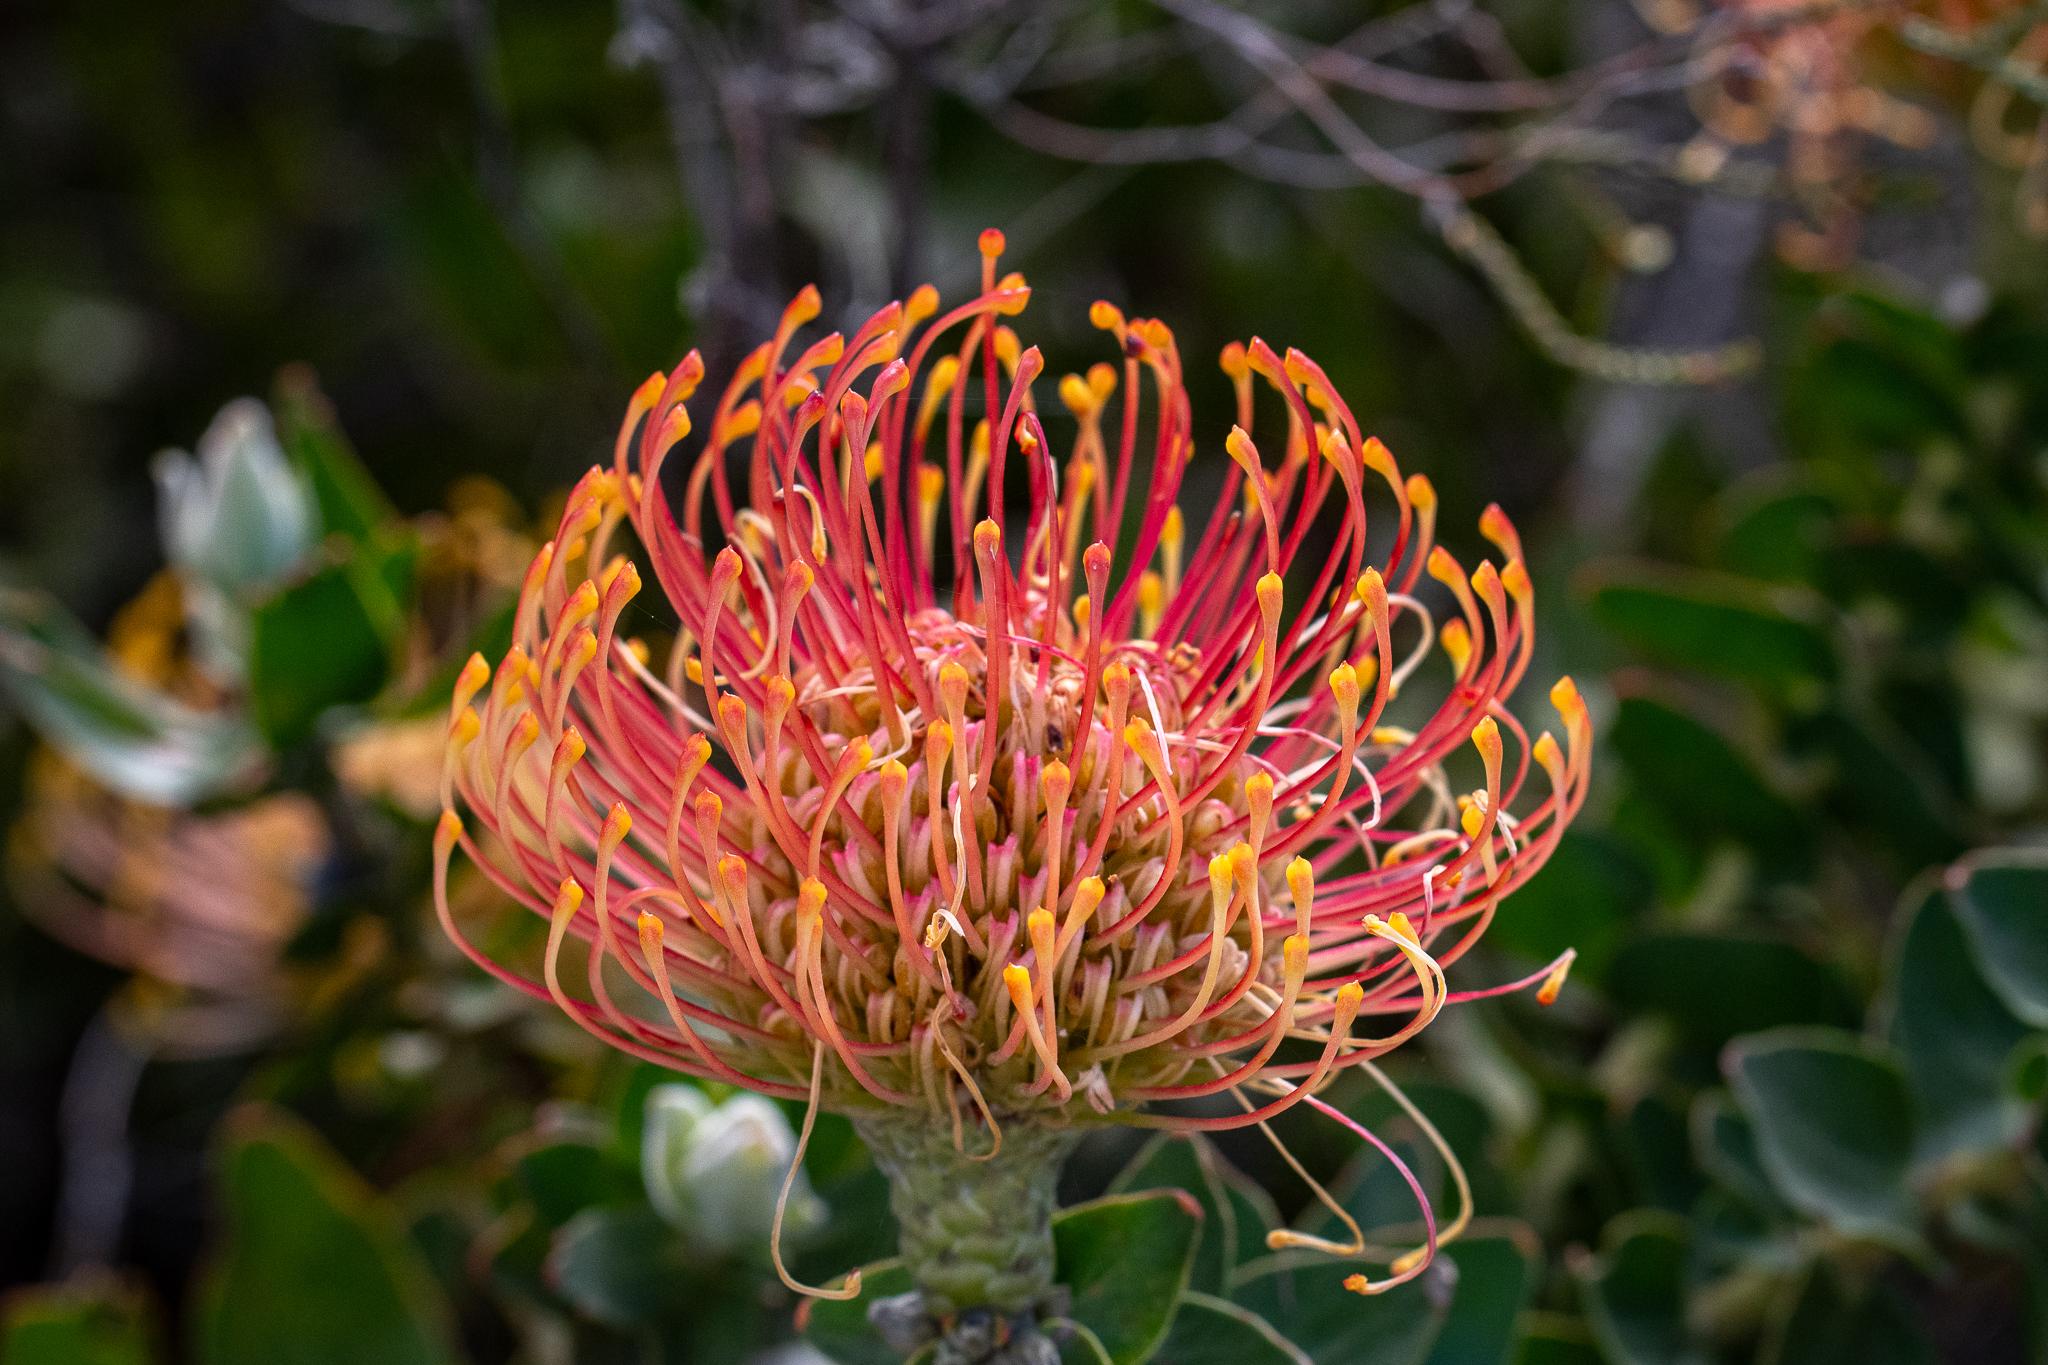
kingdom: Plantae
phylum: Tracheophyta
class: Magnoliopsida
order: Proteales
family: Proteaceae
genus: Leucospermum
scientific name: Leucospermum cordifolium
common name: Red pincushion-protea
